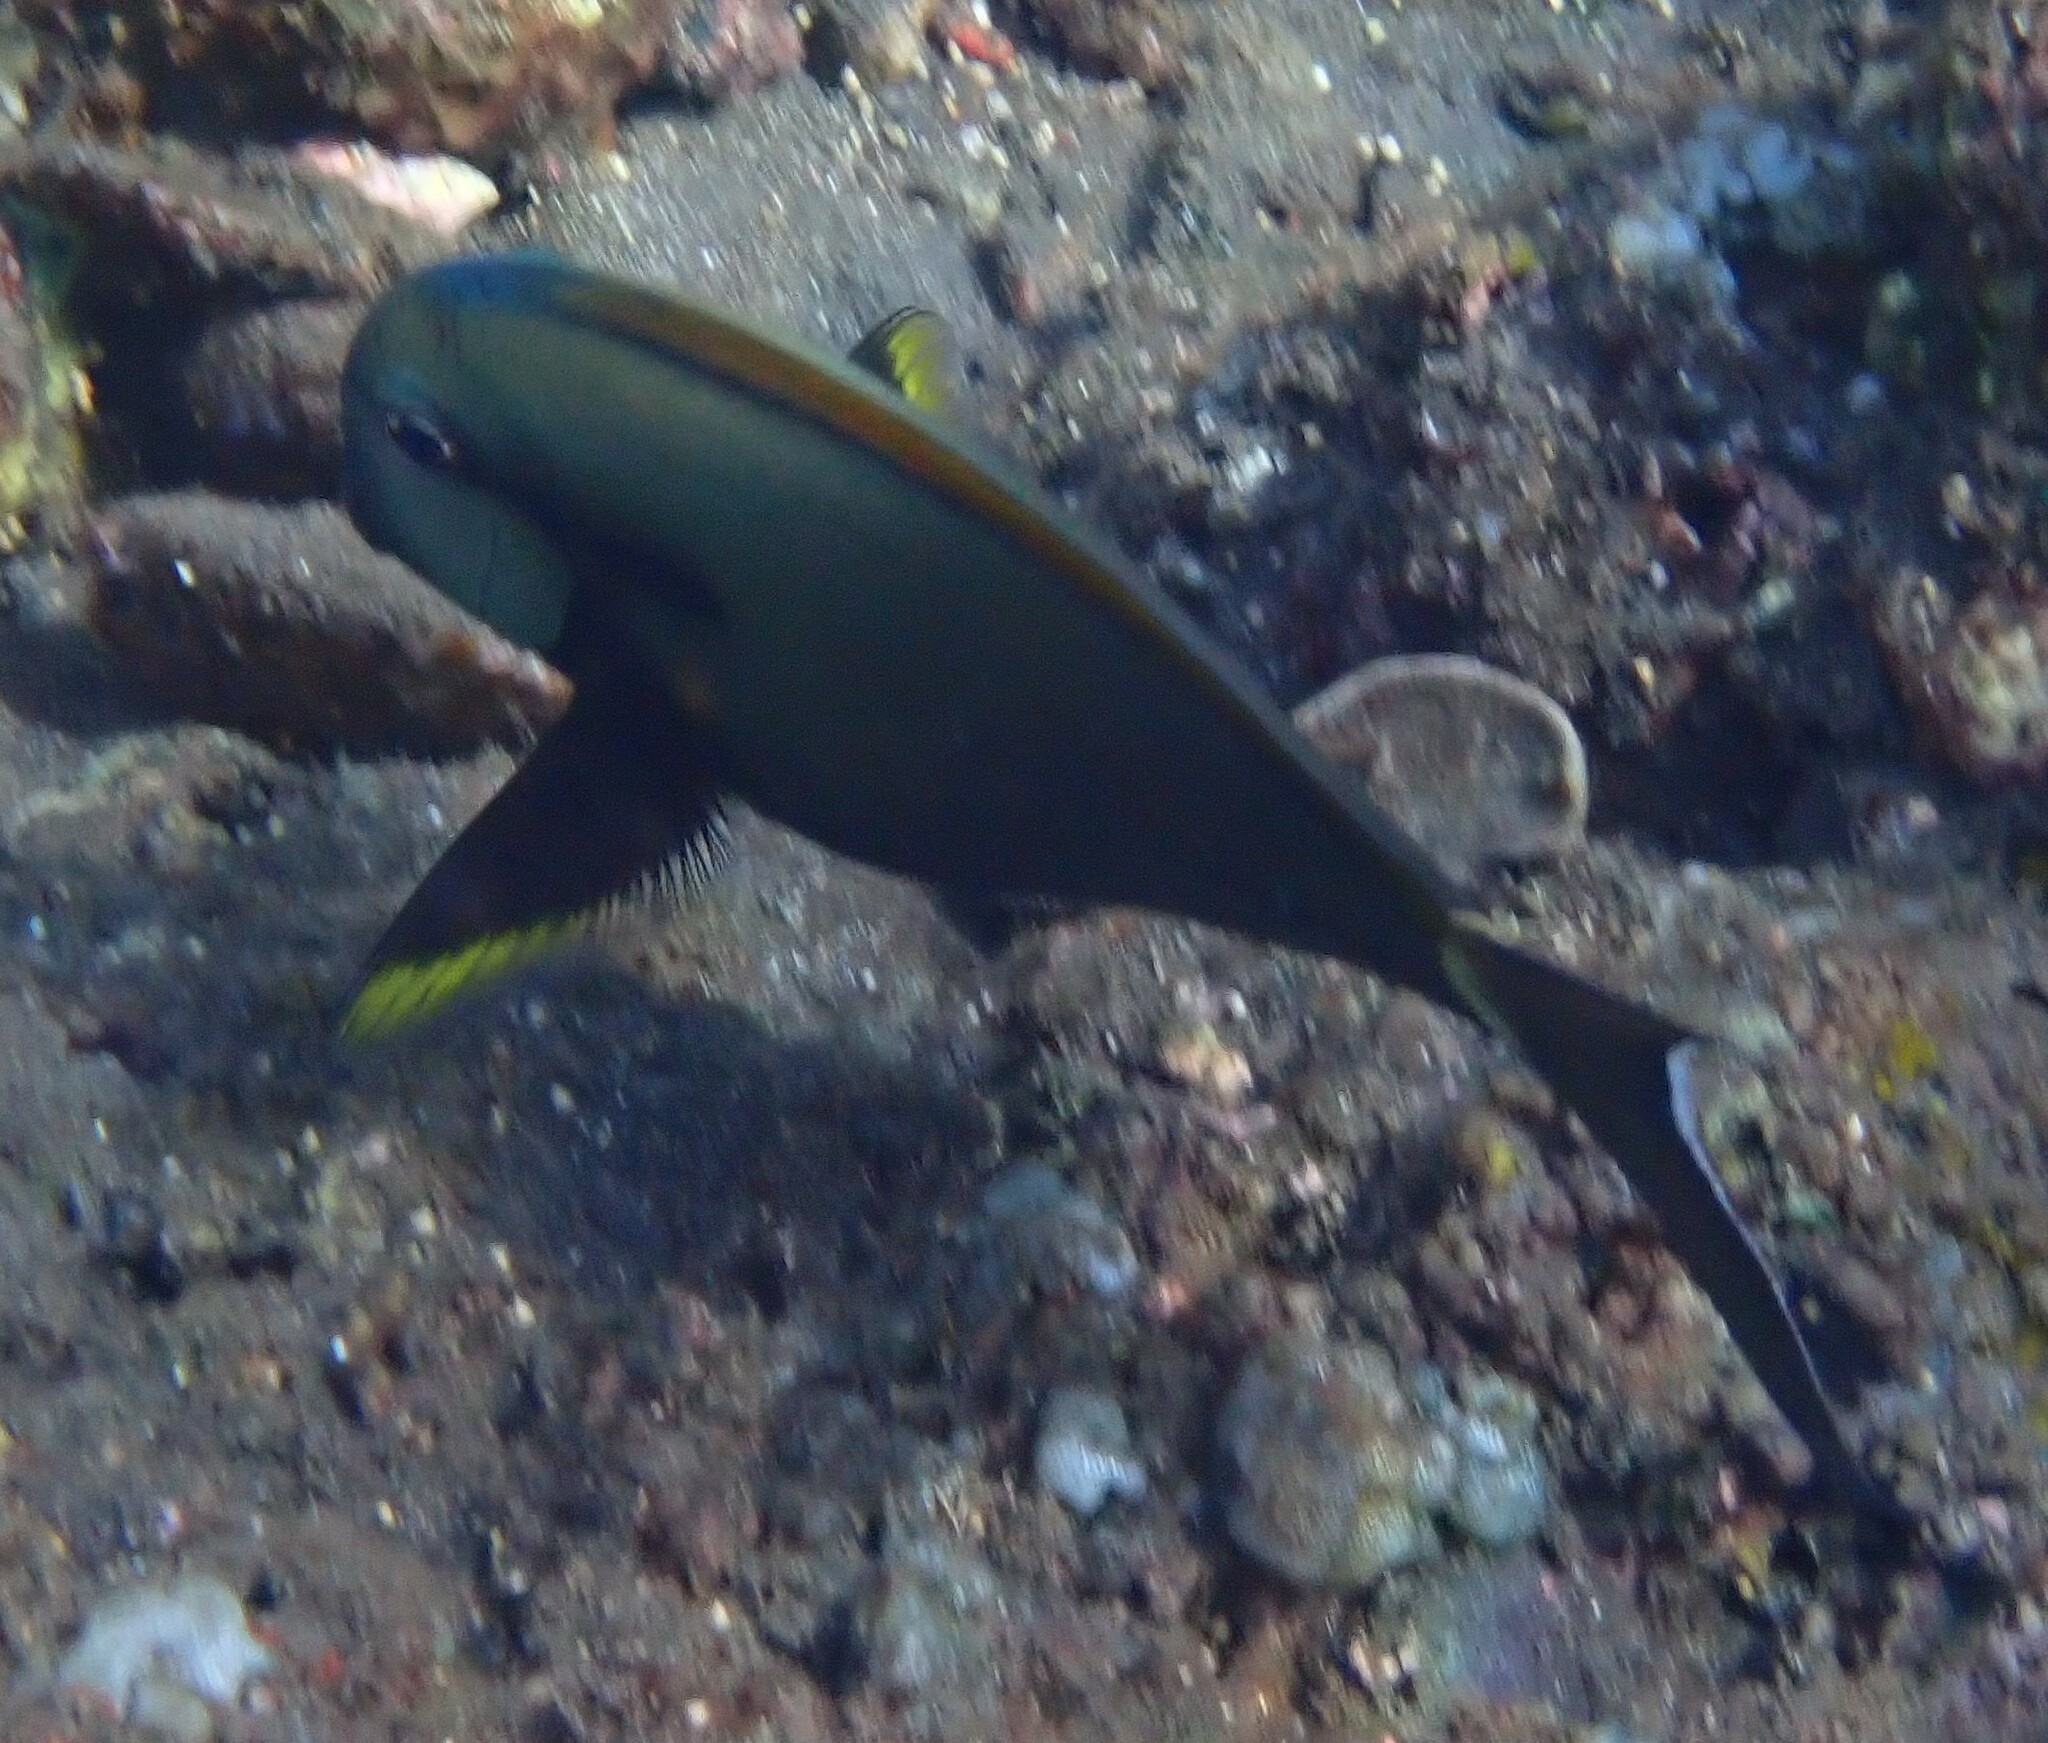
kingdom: Animalia
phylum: Chordata
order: Perciformes
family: Acanthuridae
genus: Acanthurus
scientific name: Acanthurus nigricauda
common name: Black-barred surgeonfish
